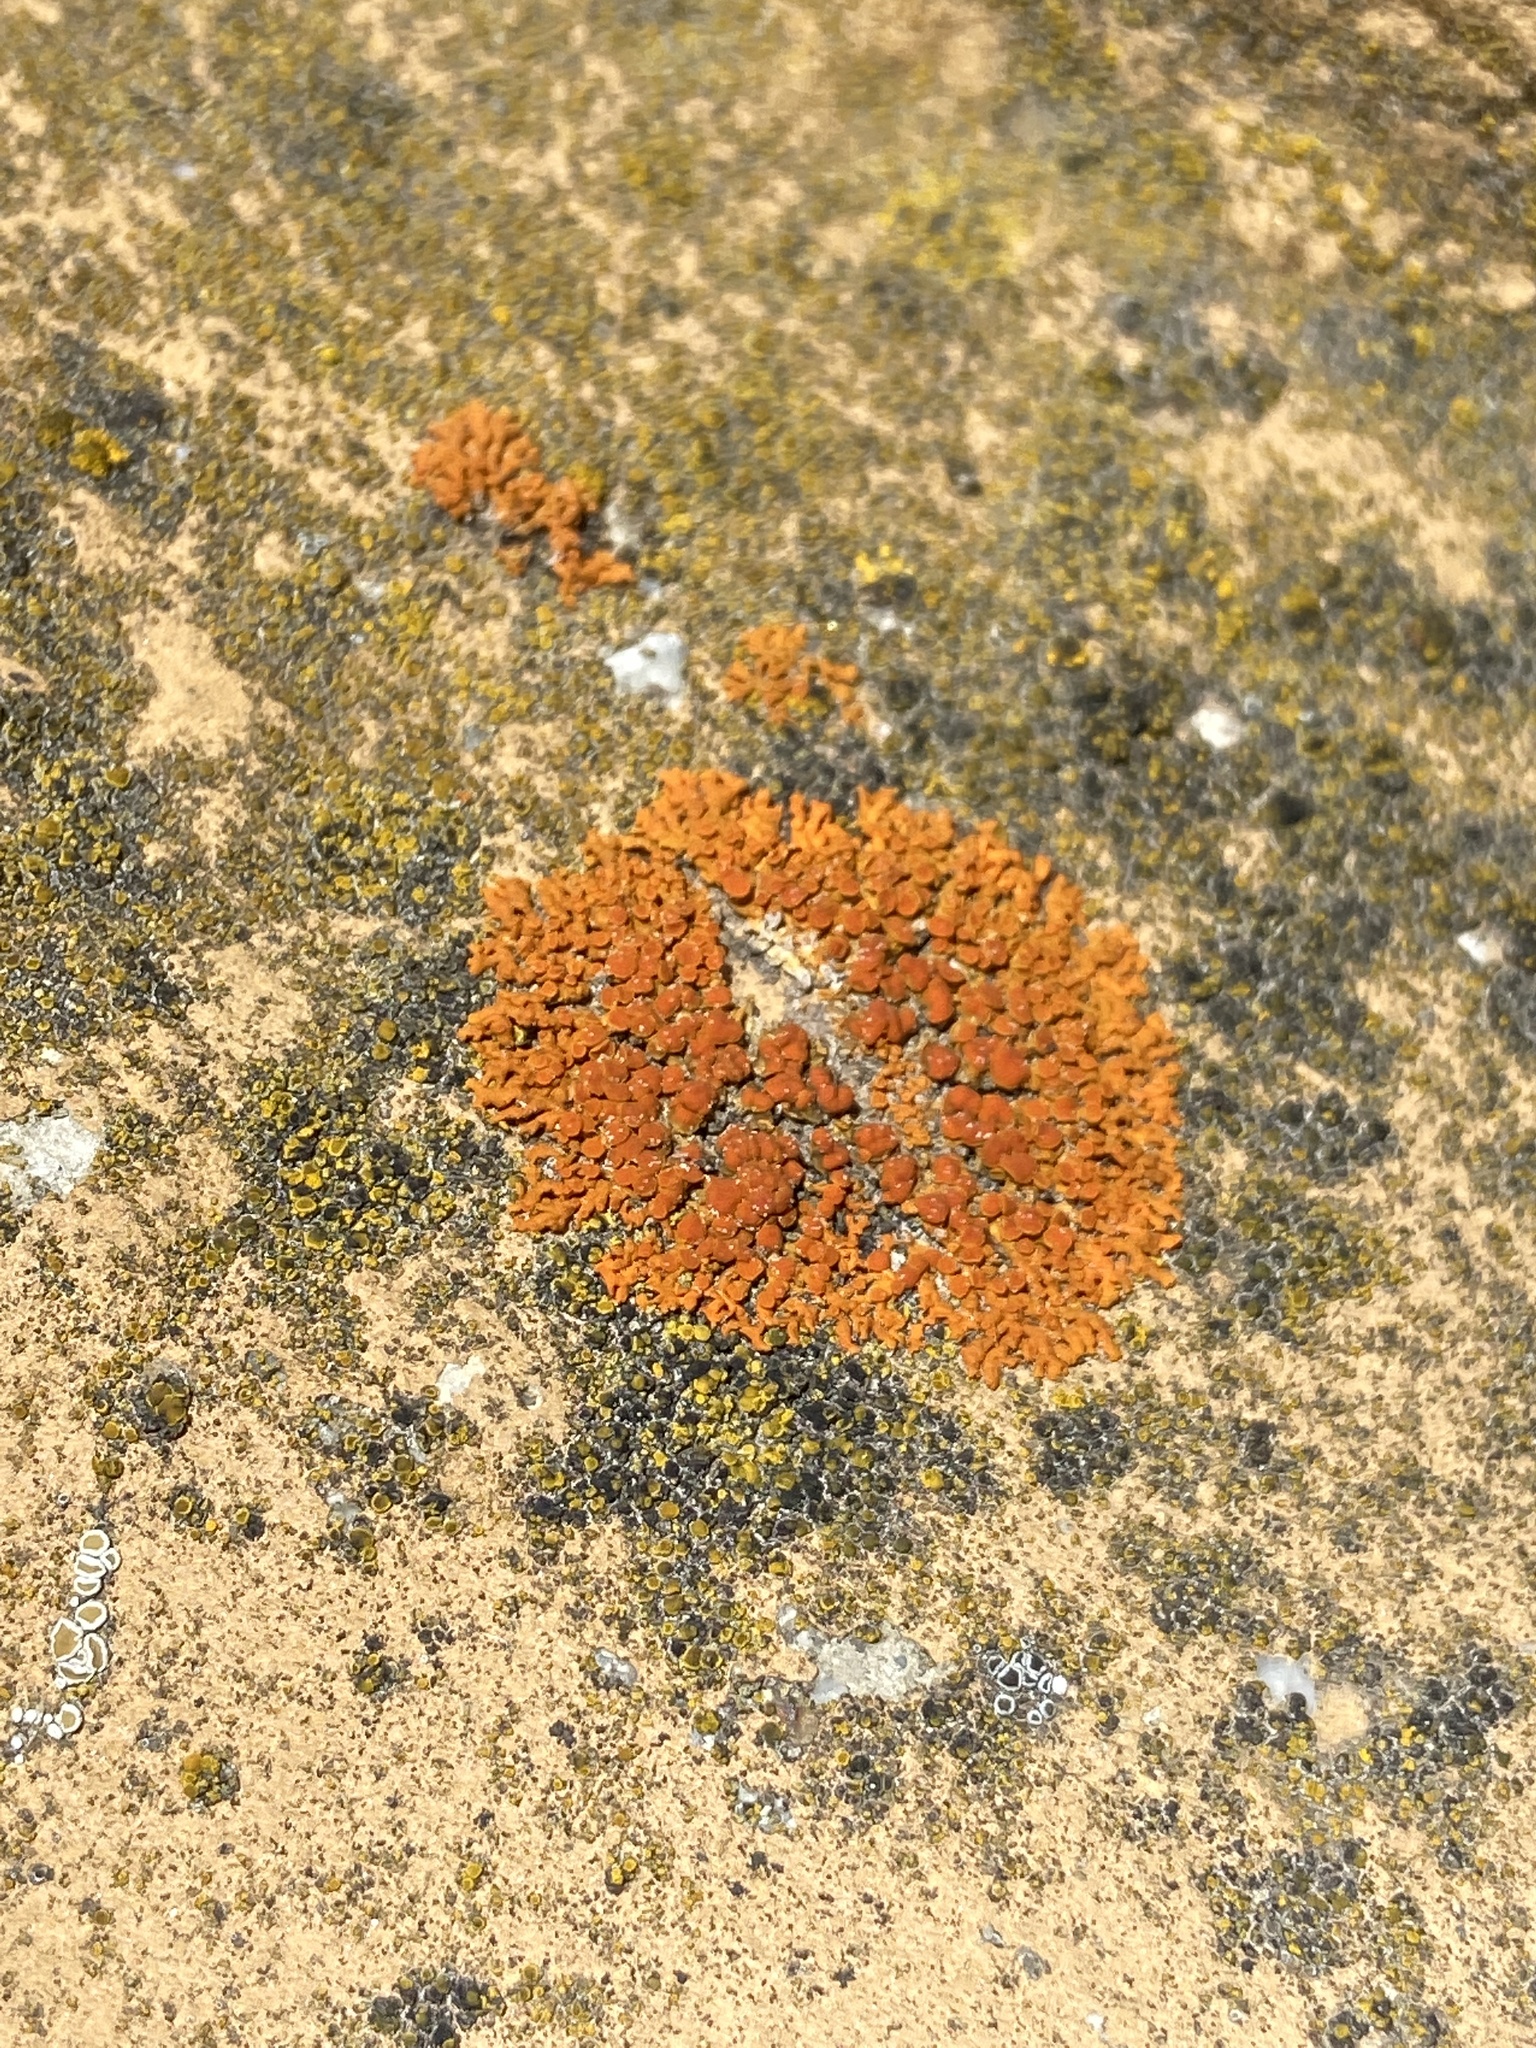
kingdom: Fungi
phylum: Ascomycota
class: Lecanoromycetes
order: Teloschistales
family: Teloschistaceae
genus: Xanthoria
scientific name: Xanthoria elegans
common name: Elegant sunburst lichen
